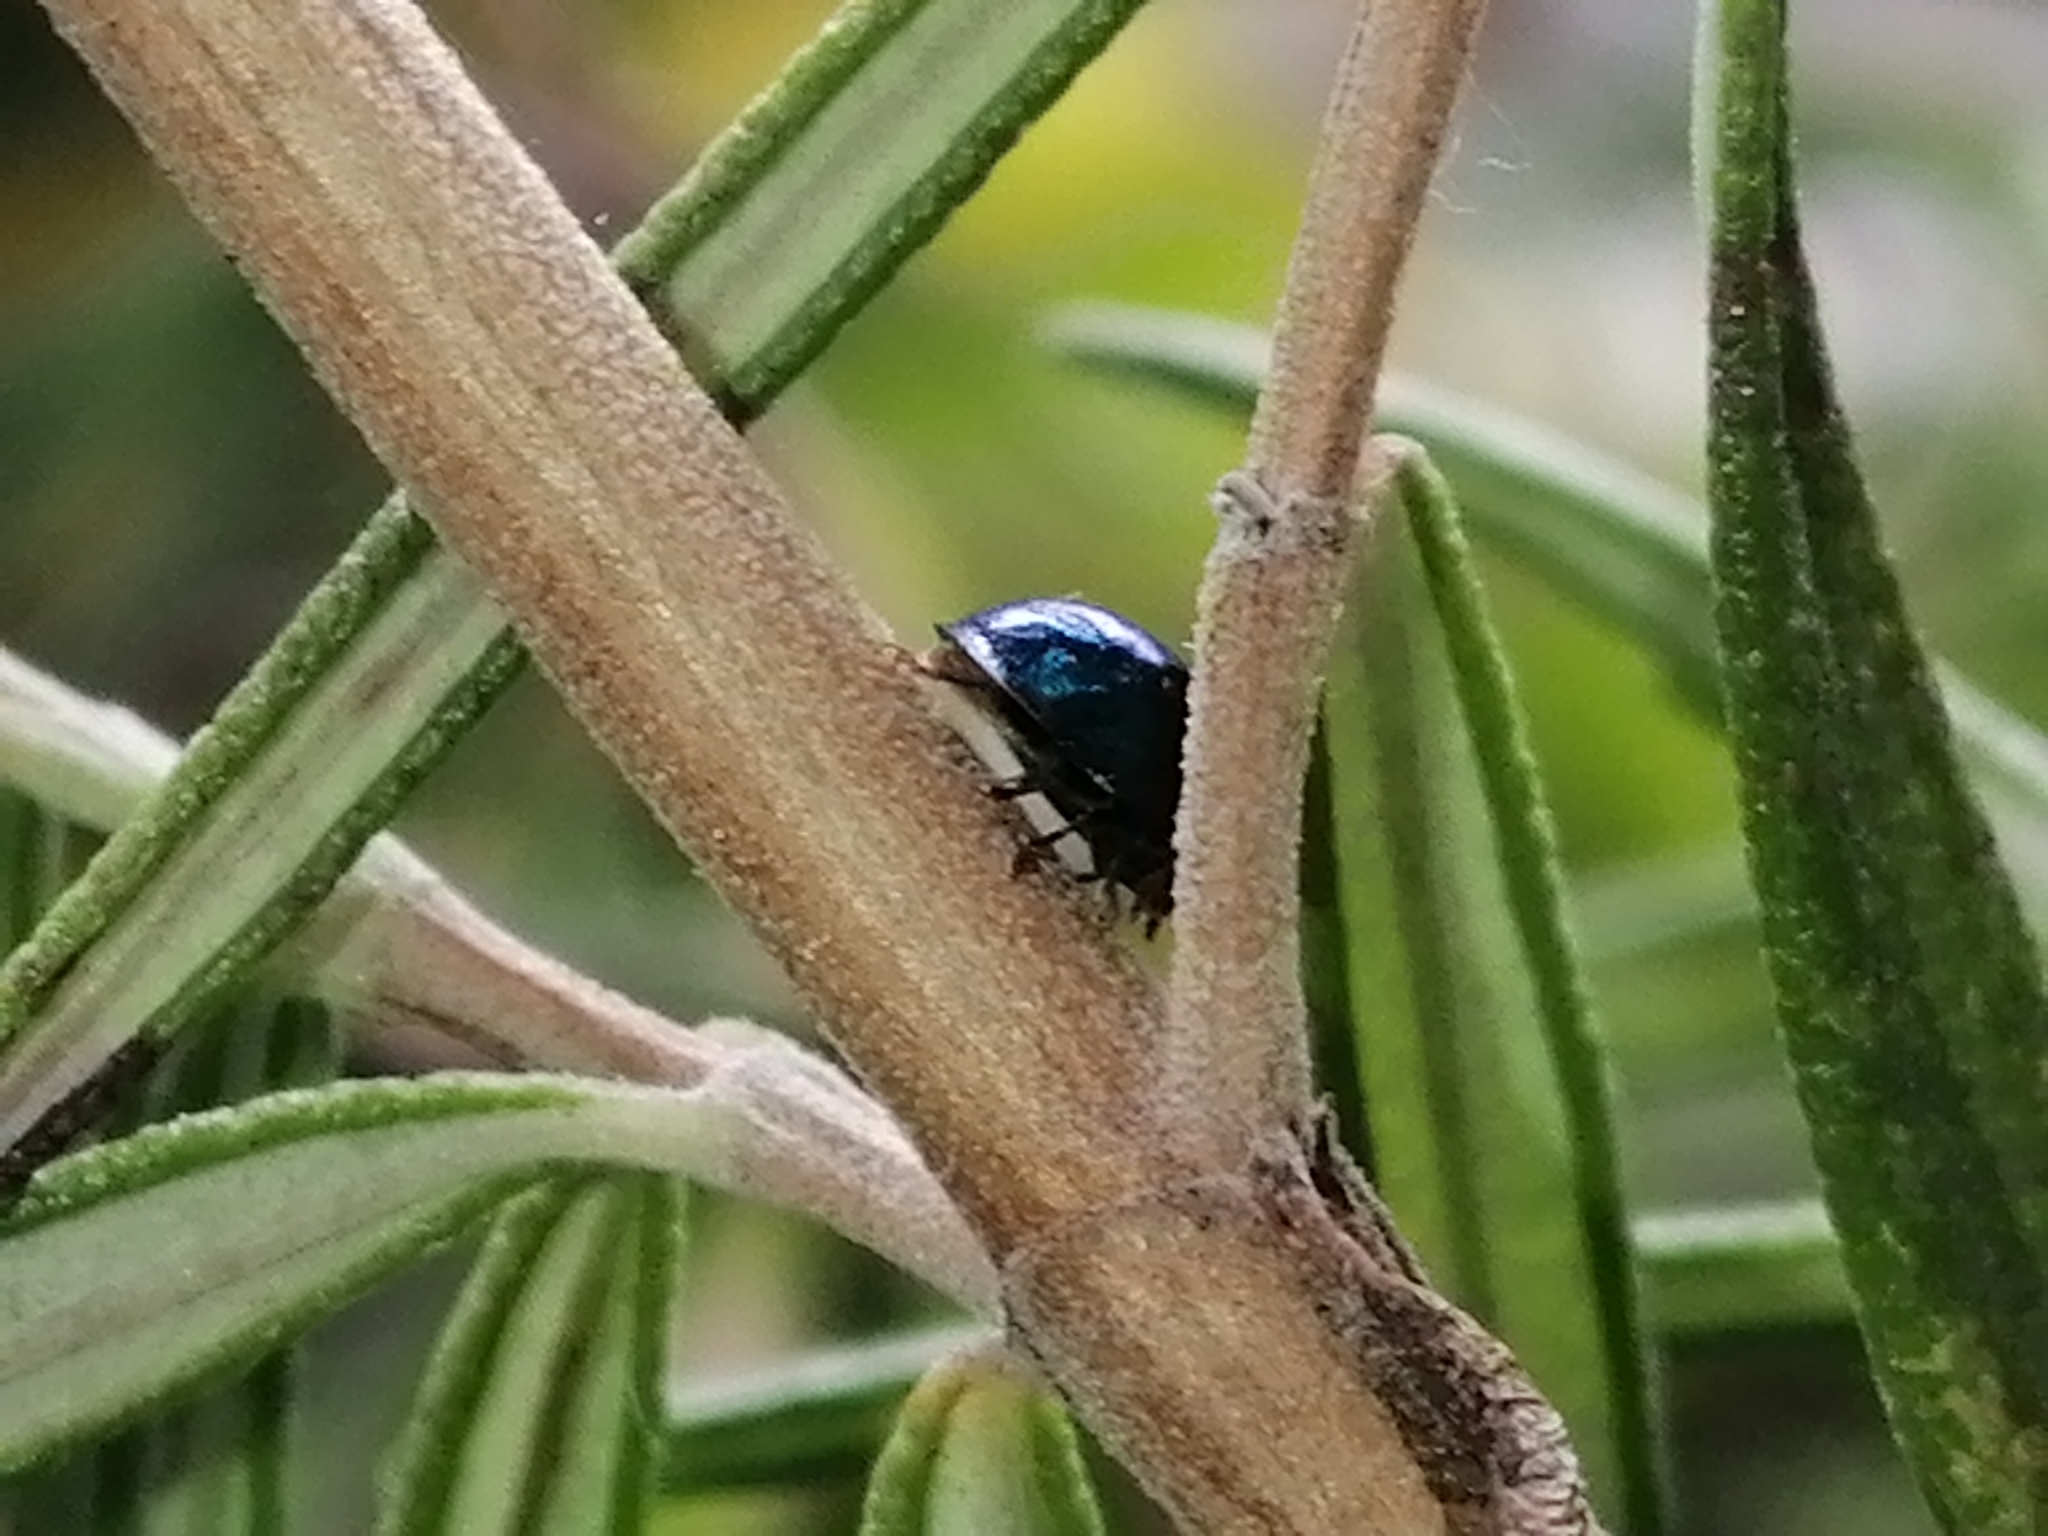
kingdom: Animalia
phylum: Arthropoda
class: Insecta
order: Coleoptera
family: Coccinellidae
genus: Halmus
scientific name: Halmus chalybeus
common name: Steel blue ladybird beetle
